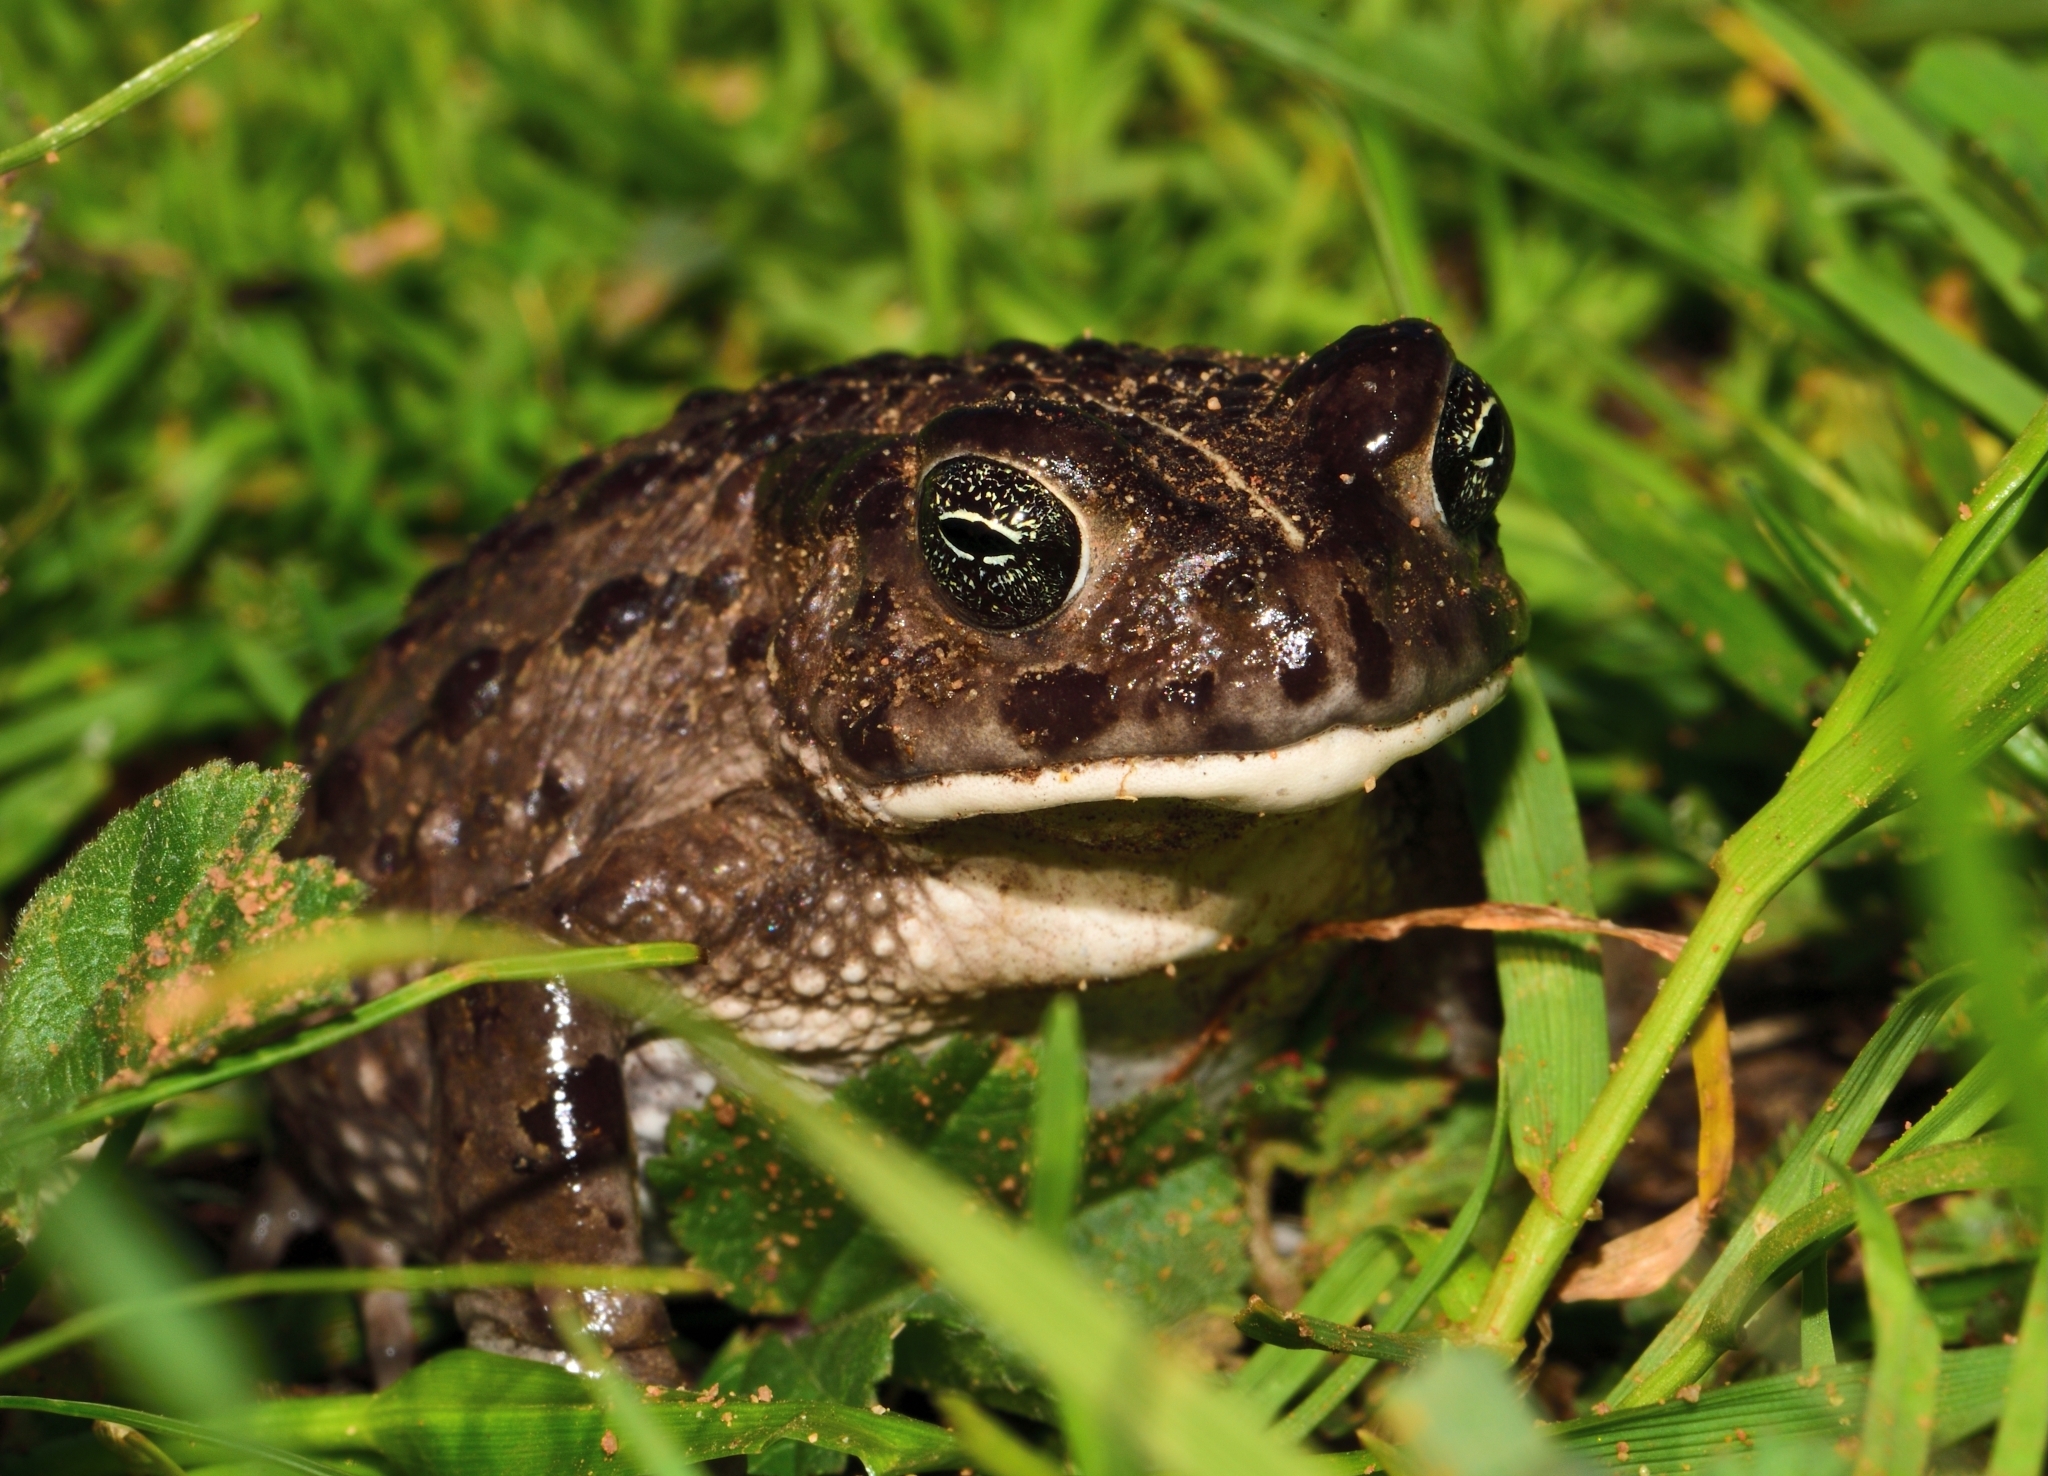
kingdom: Animalia
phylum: Chordata
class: Amphibia
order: Anura
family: Bufonidae
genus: Vandijkophrynus
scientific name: Vandijkophrynus angusticeps
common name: Sand toad
